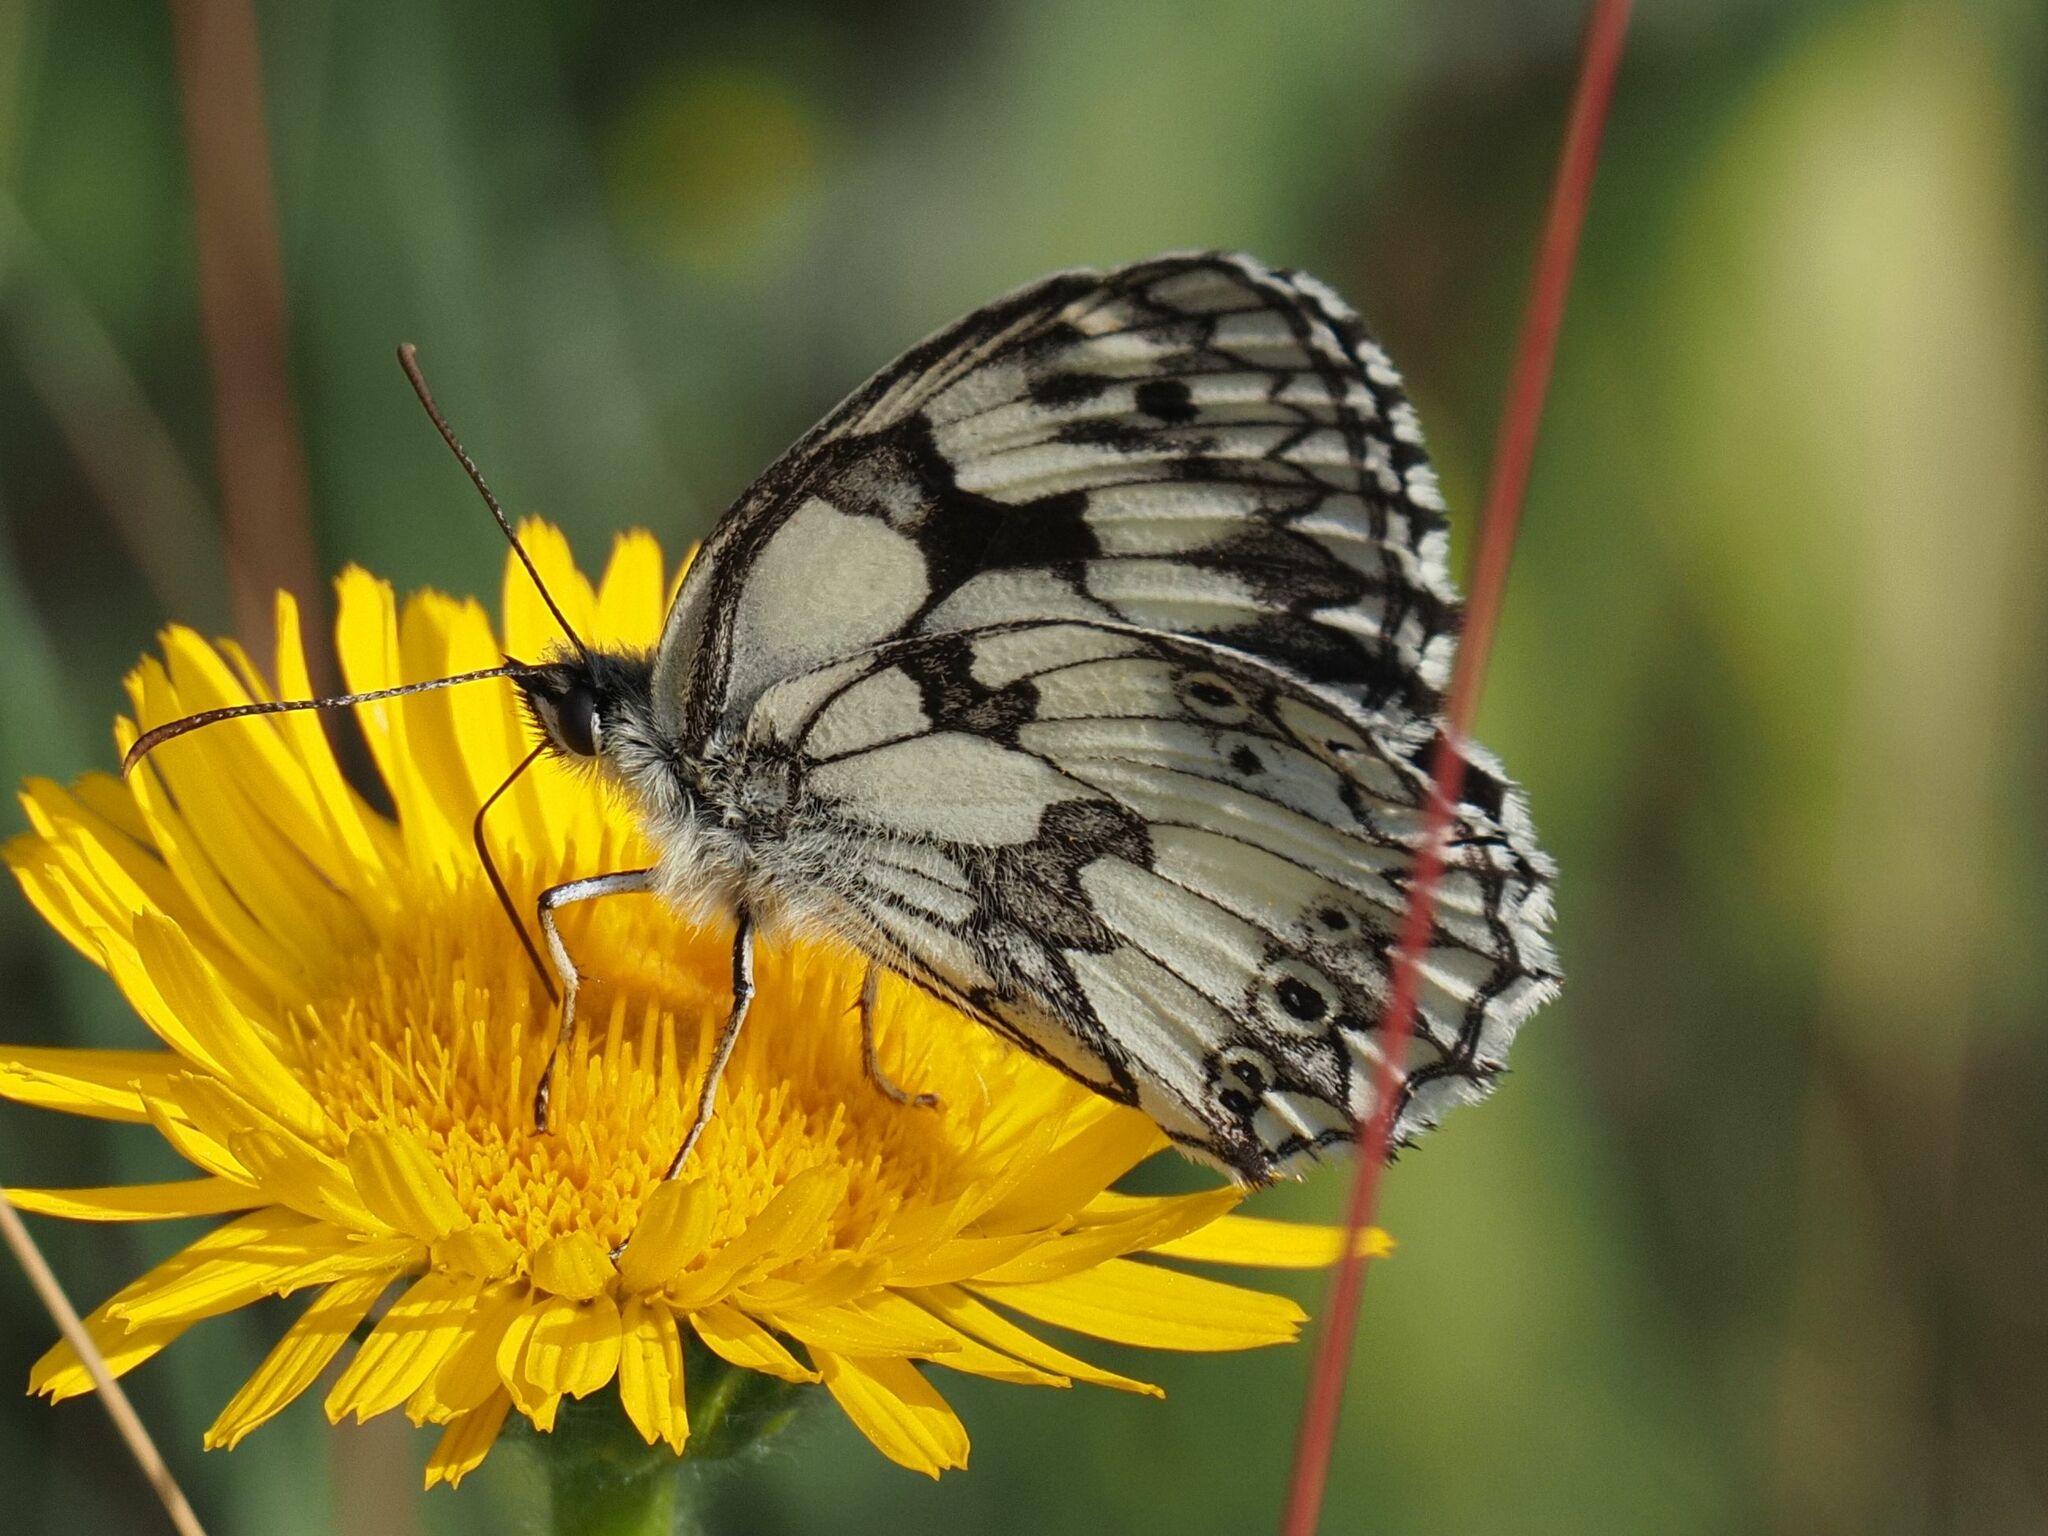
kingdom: Animalia
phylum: Arthropoda
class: Insecta
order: Lepidoptera
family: Nymphalidae
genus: Melanargia
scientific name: Melanargia galathea
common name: Marbled white
